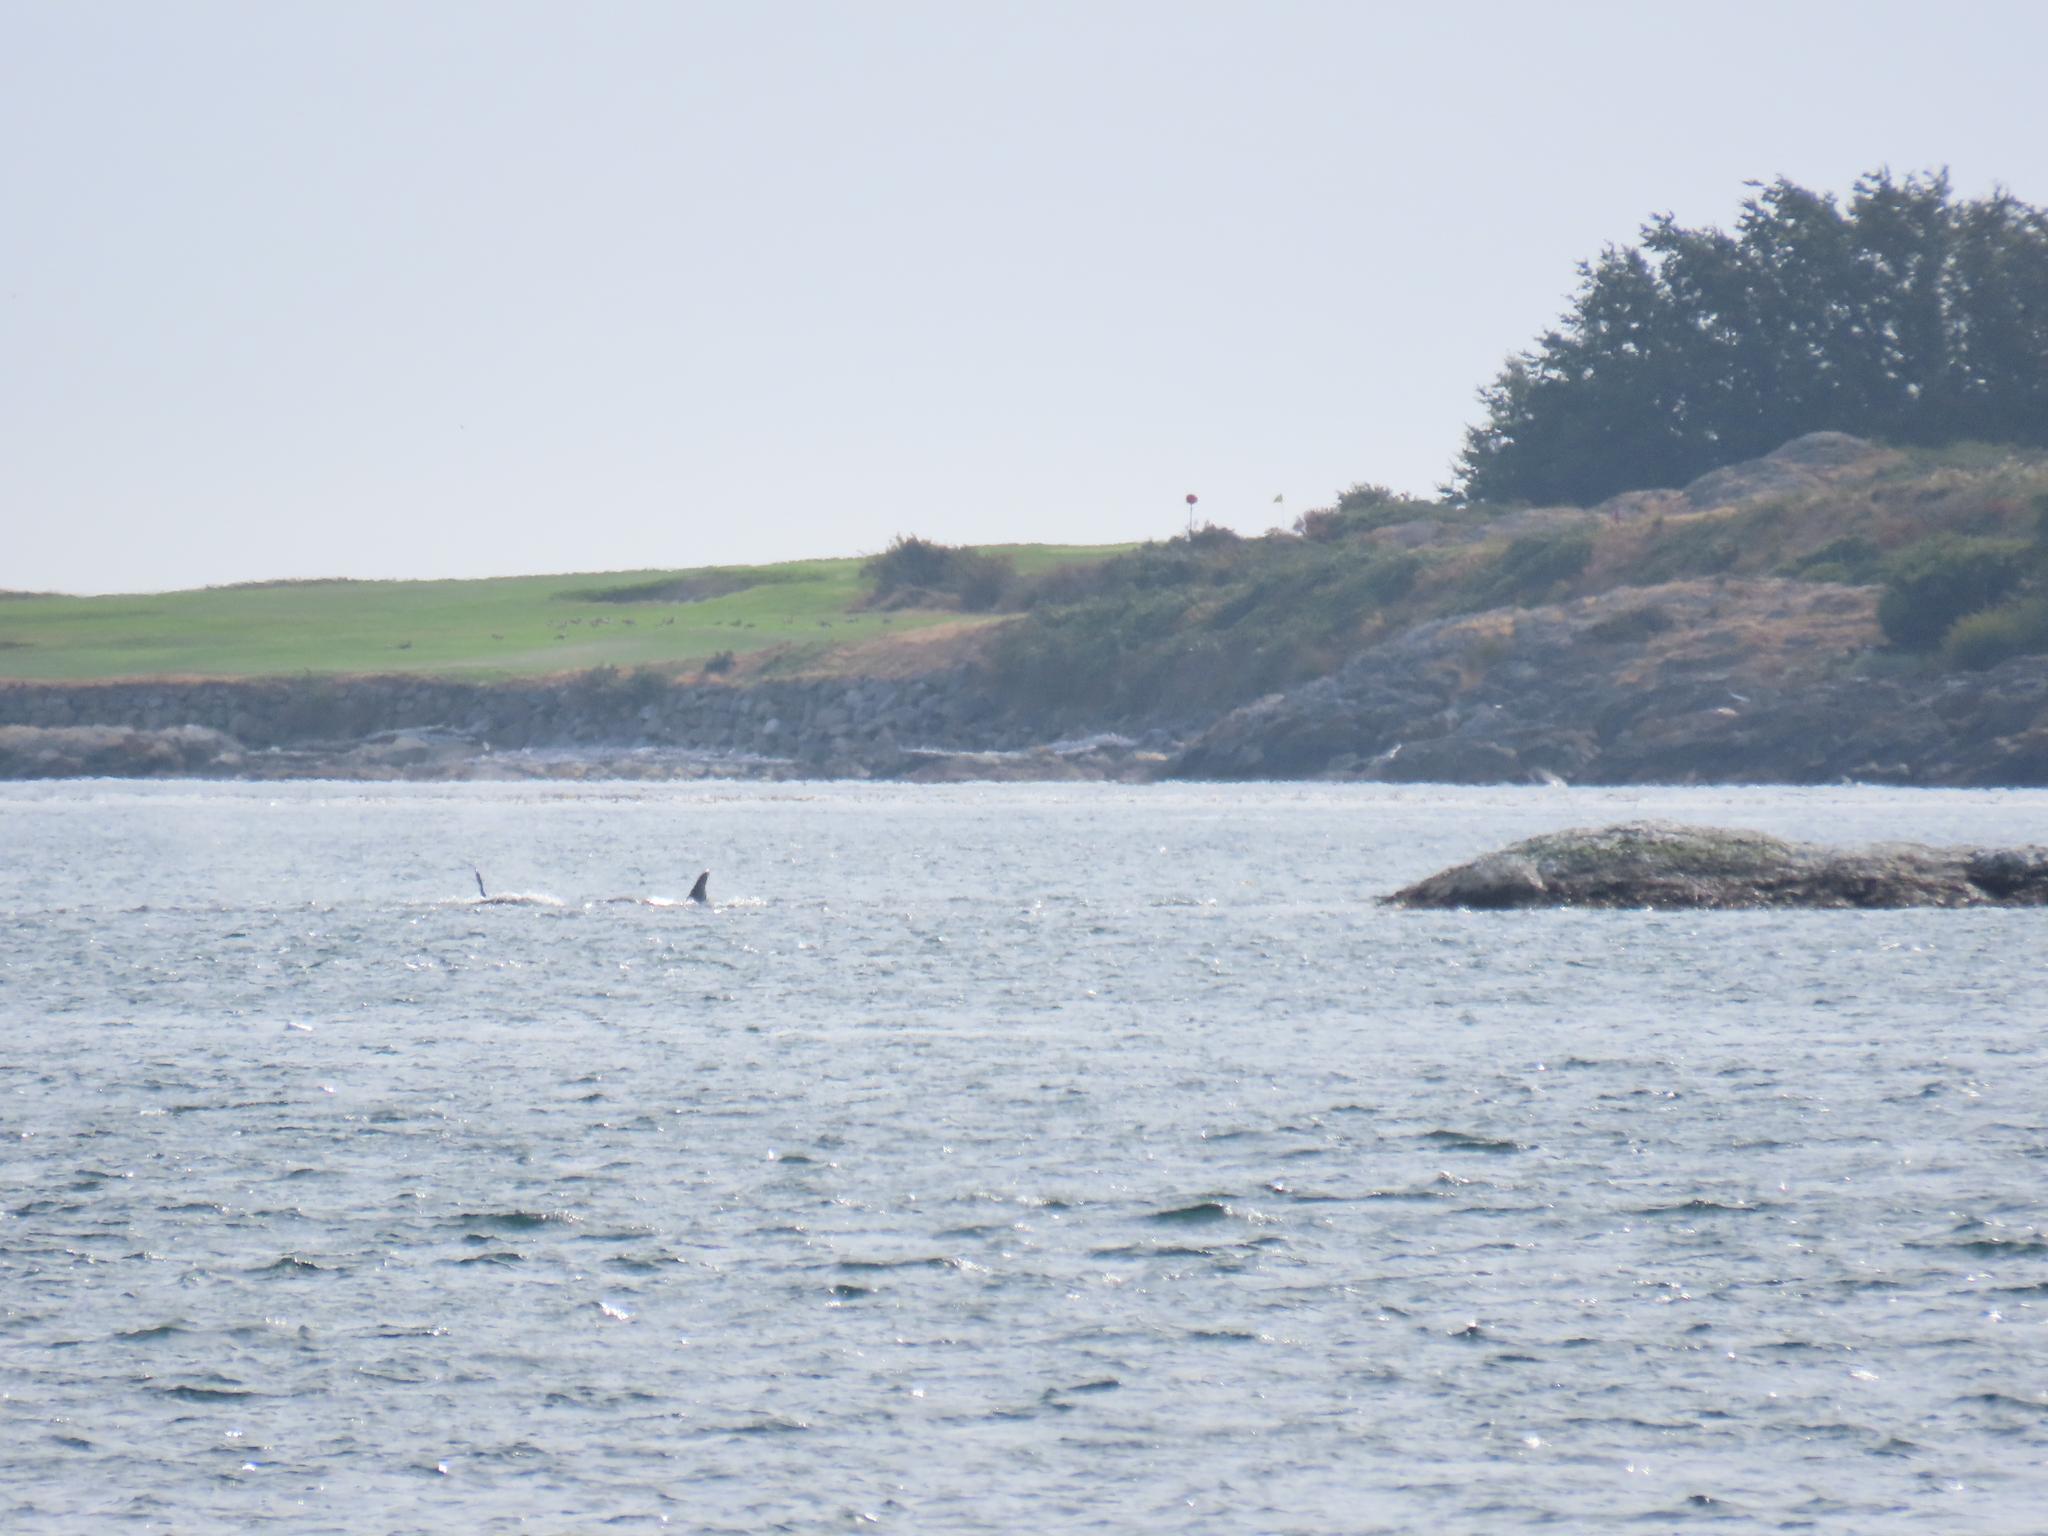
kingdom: Animalia
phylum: Chordata
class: Mammalia
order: Cetacea
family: Delphinidae
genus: Orcinus
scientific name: Orcinus orca
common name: Killer whale
